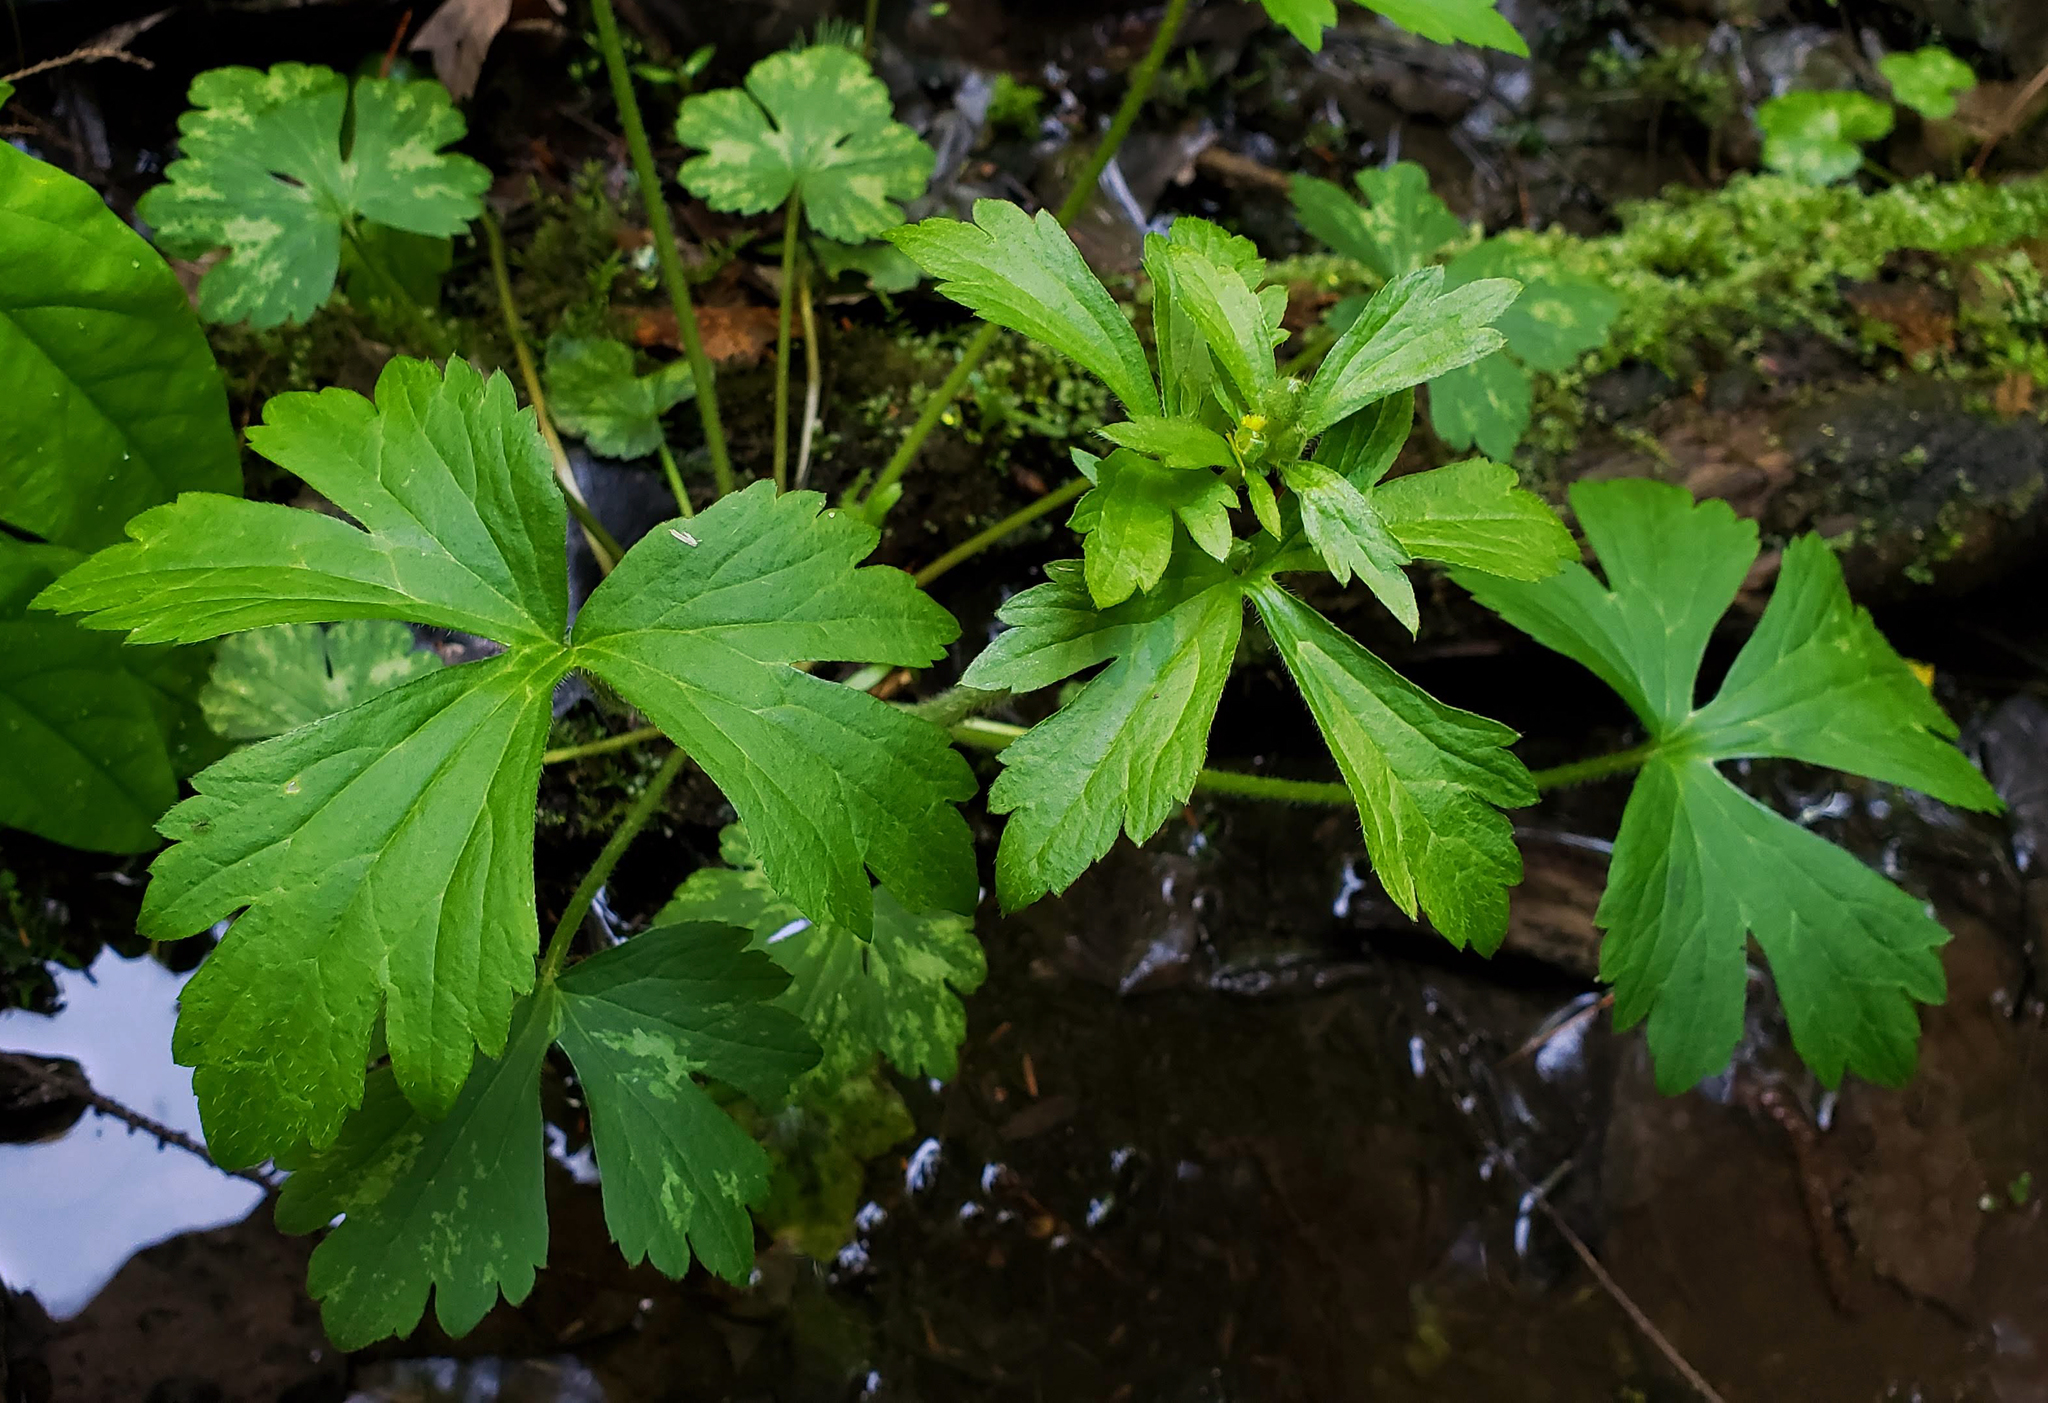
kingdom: Plantae
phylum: Tracheophyta
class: Magnoliopsida
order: Ranunculales
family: Ranunculaceae
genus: Ranunculus
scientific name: Ranunculus recurvatus
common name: Blisterwort
